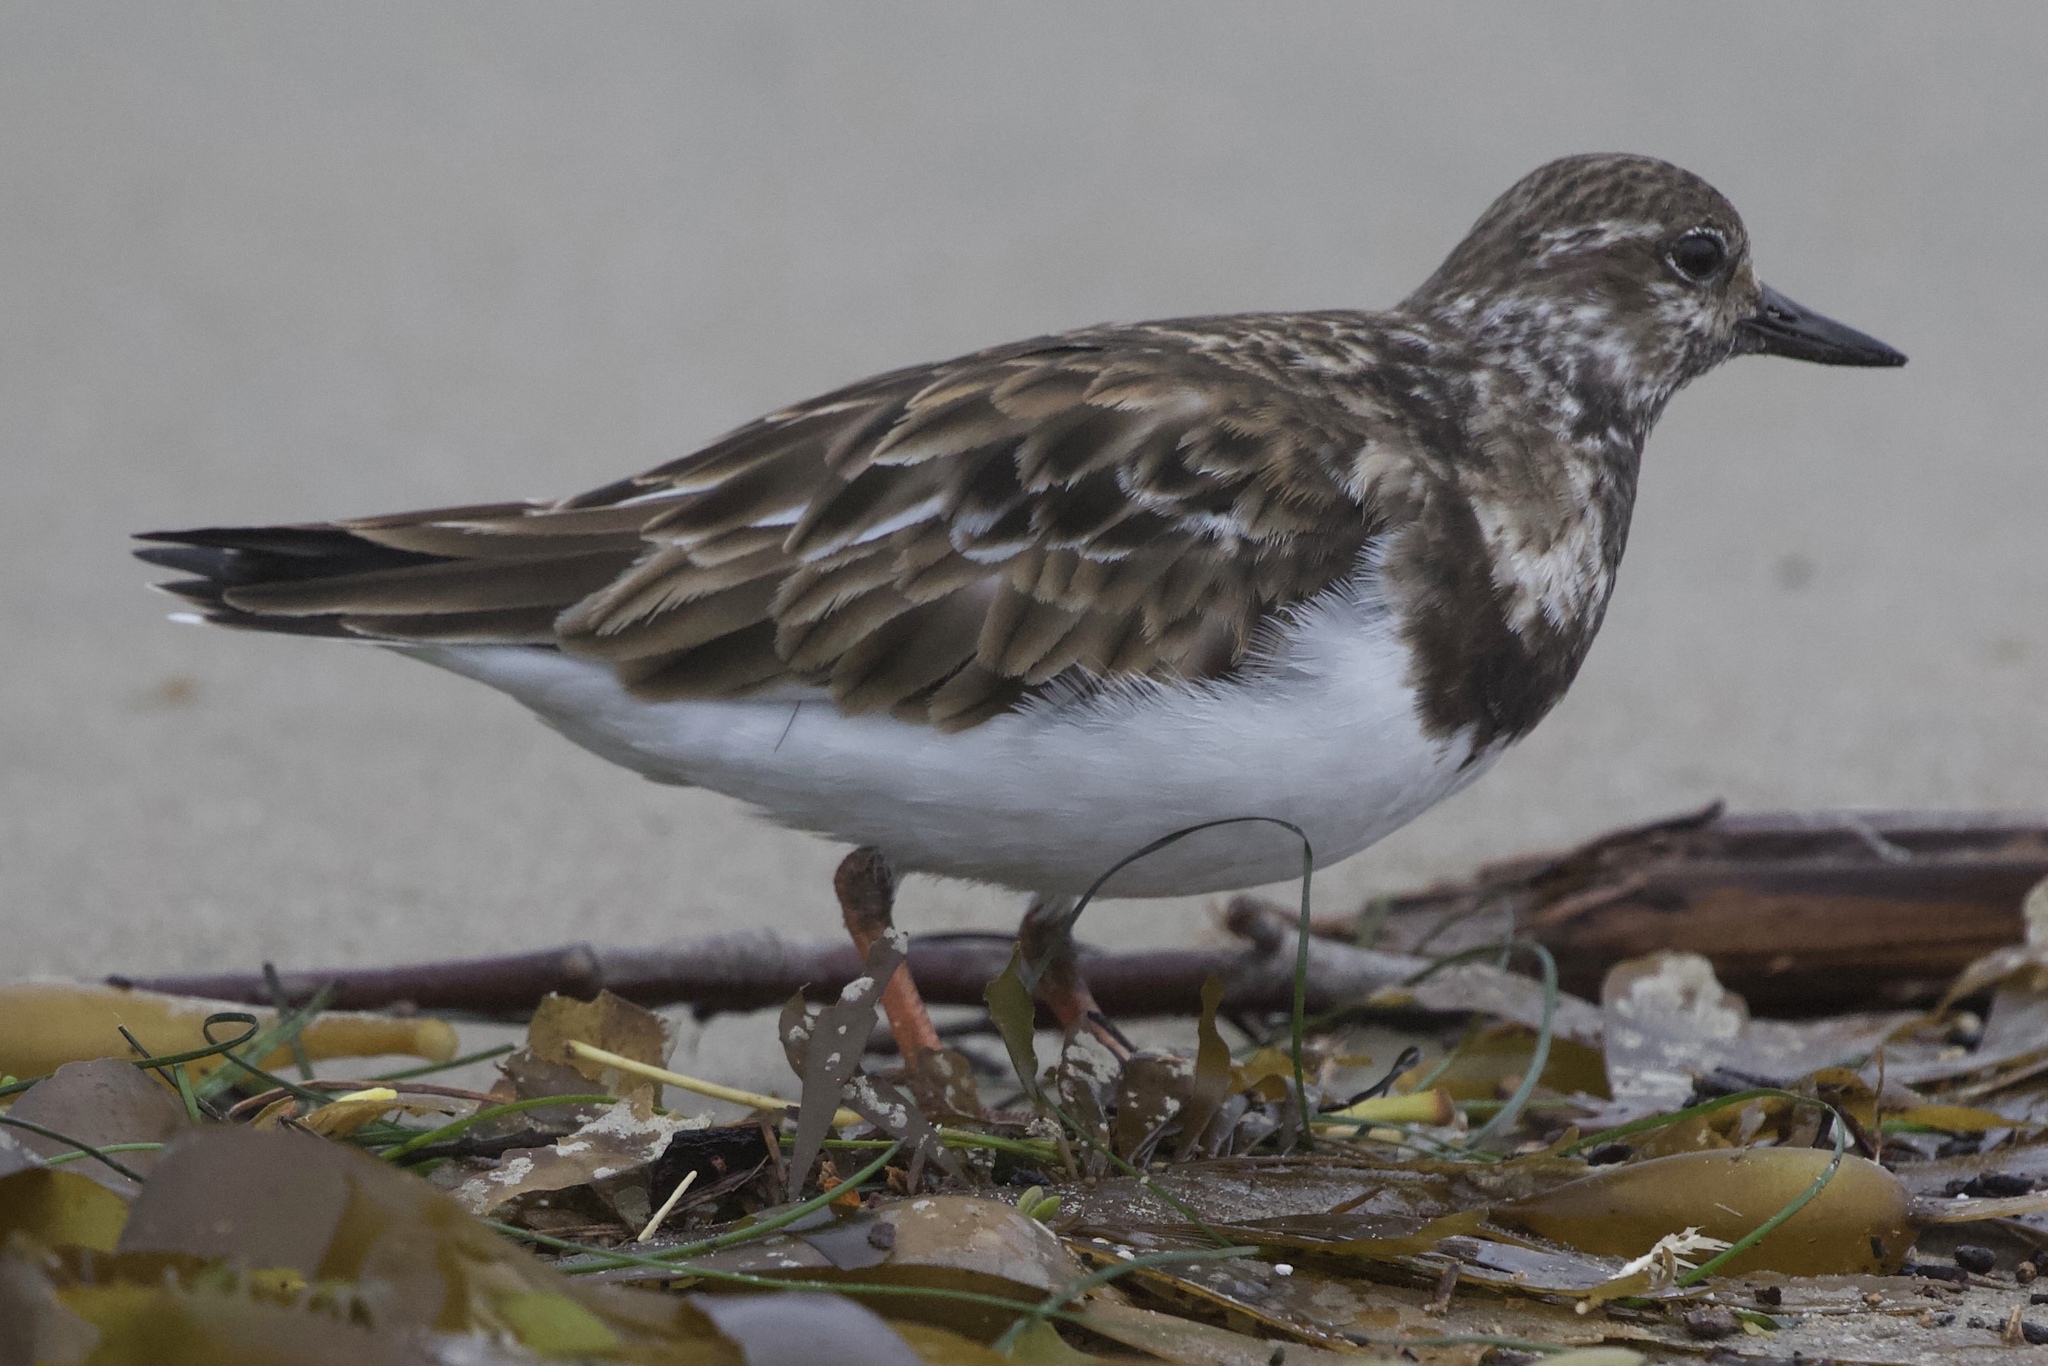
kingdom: Animalia
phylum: Chordata
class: Aves
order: Charadriiformes
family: Scolopacidae
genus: Arenaria
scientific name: Arenaria interpres
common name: Ruddy turnstone
